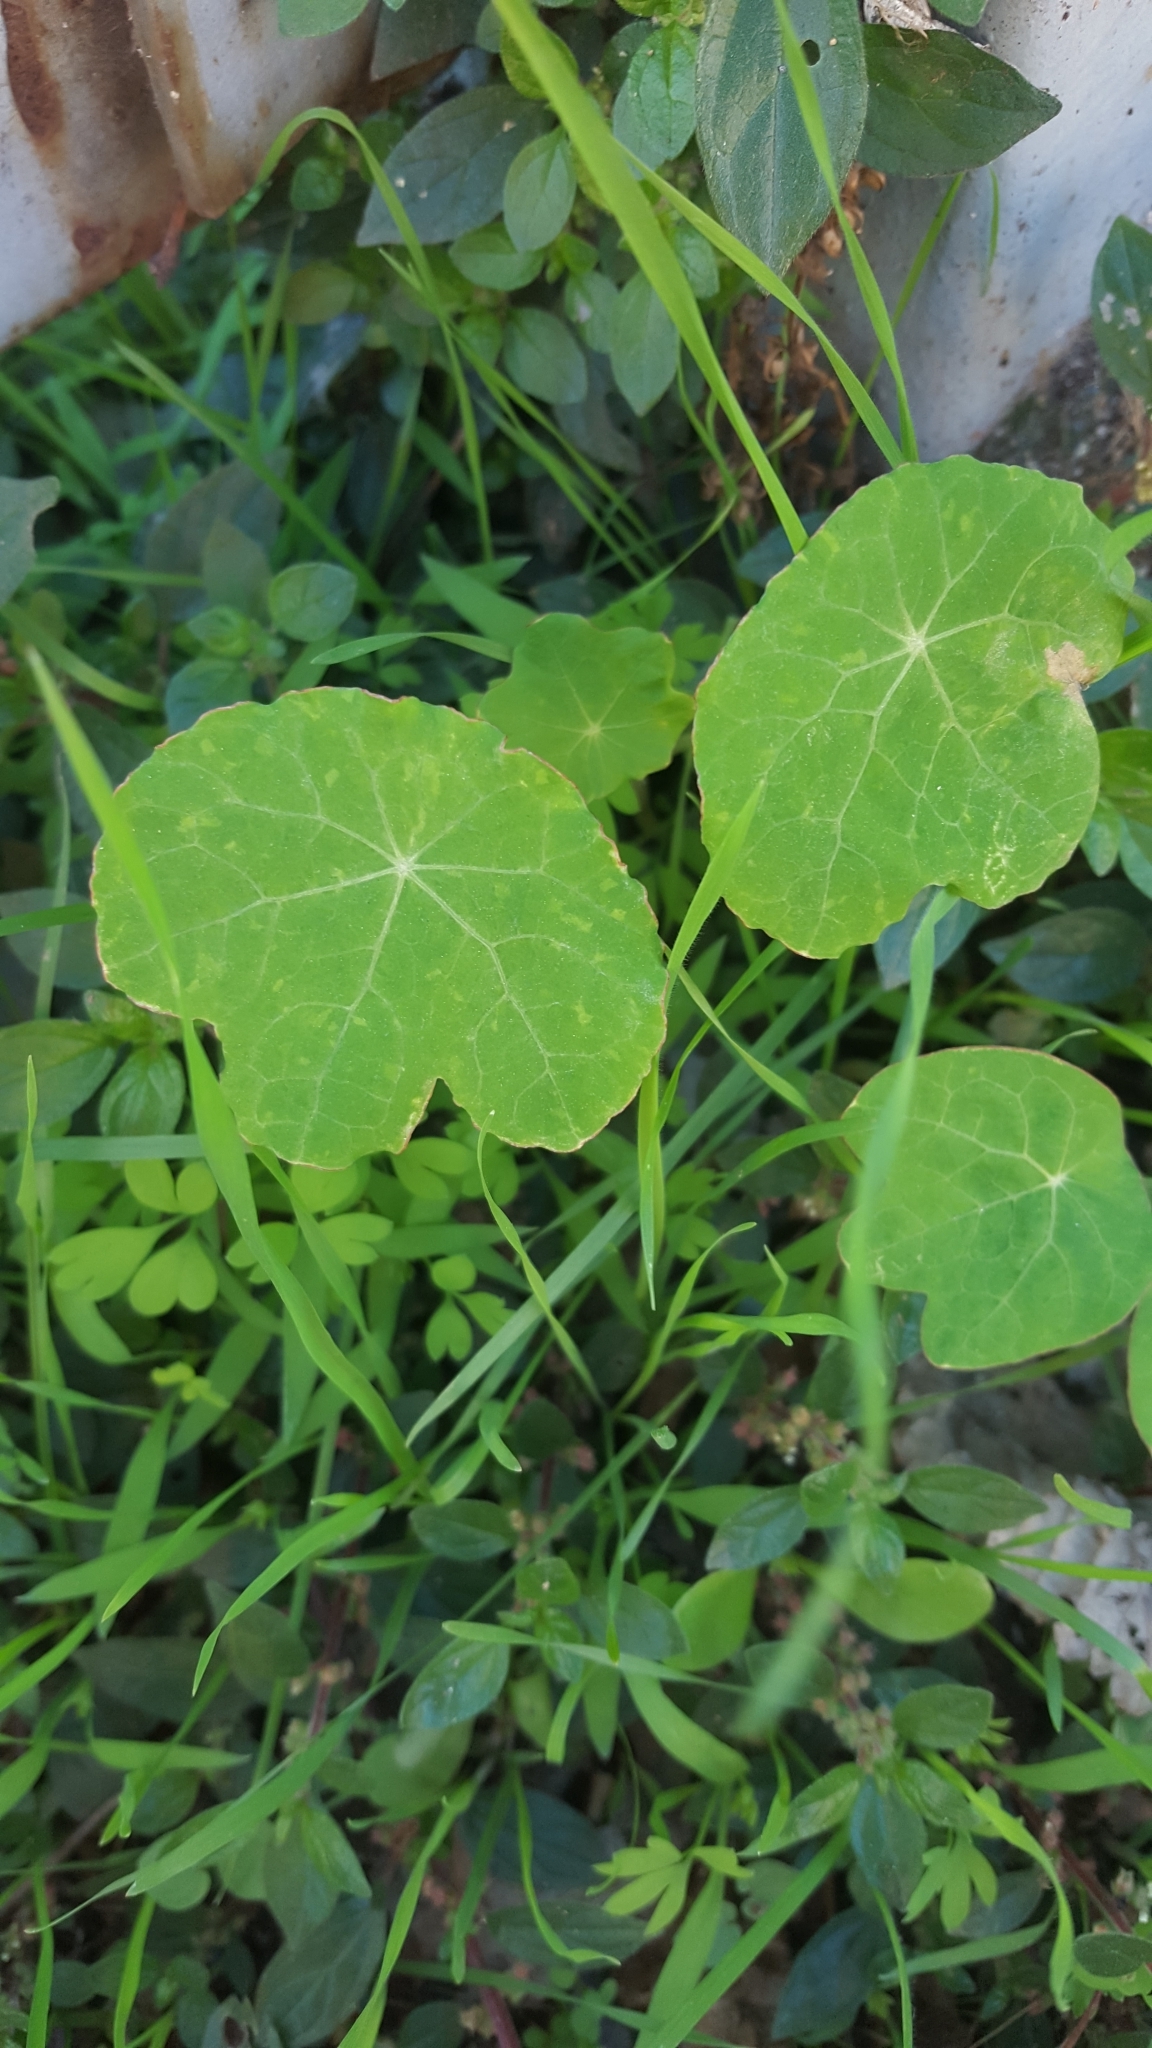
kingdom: Plantae
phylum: Tracheophyta
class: Magnoliopsida
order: Brassicales
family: Tropaeolaceae
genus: Tropaeolum
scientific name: Tropaeolum majus
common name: Nasturtium
